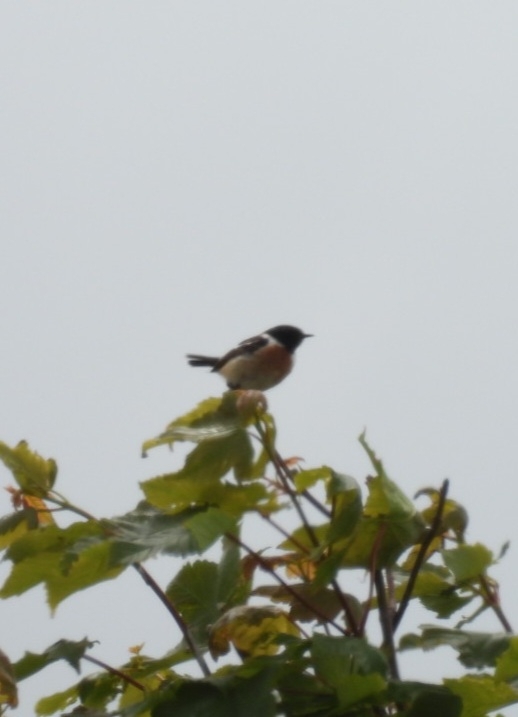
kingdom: Animalia
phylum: Chordata
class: Aves
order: Passeriformes
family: Muscicapidae
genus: Saxicola
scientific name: Saxicola rubicola
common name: European stonechat
